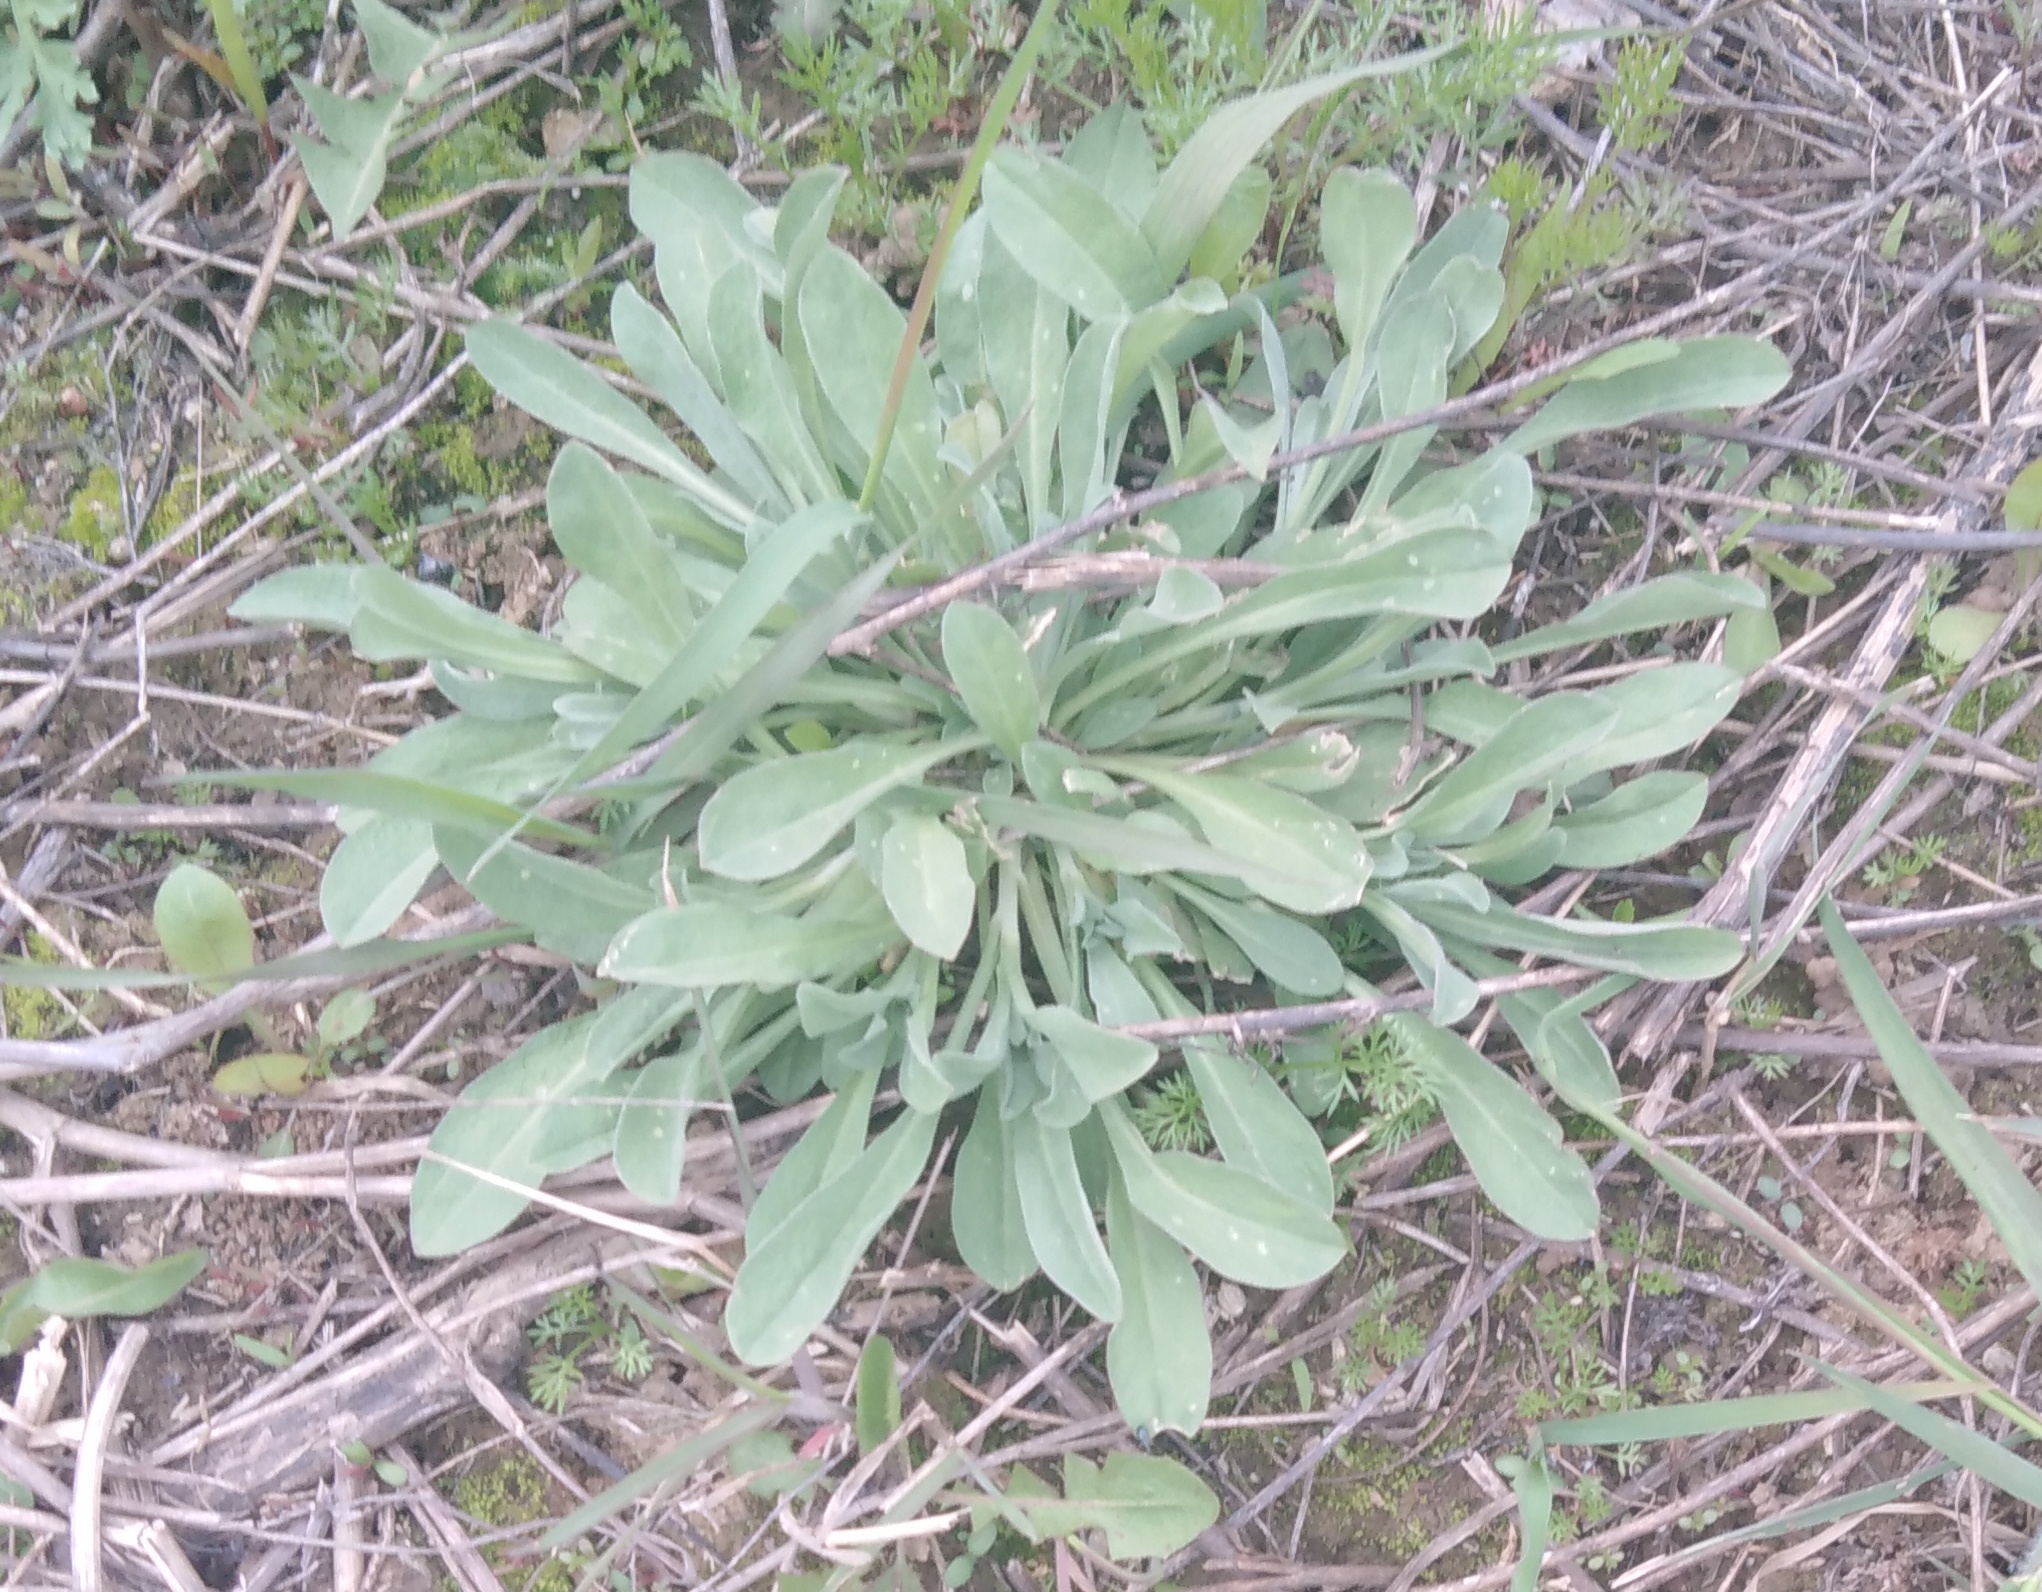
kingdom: Plantae
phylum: Tracheophyta
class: Magnoliopsida
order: Brassicales
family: Brassicaceae
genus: Berteroa
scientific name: Berteroa incana
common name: Hoary alison
